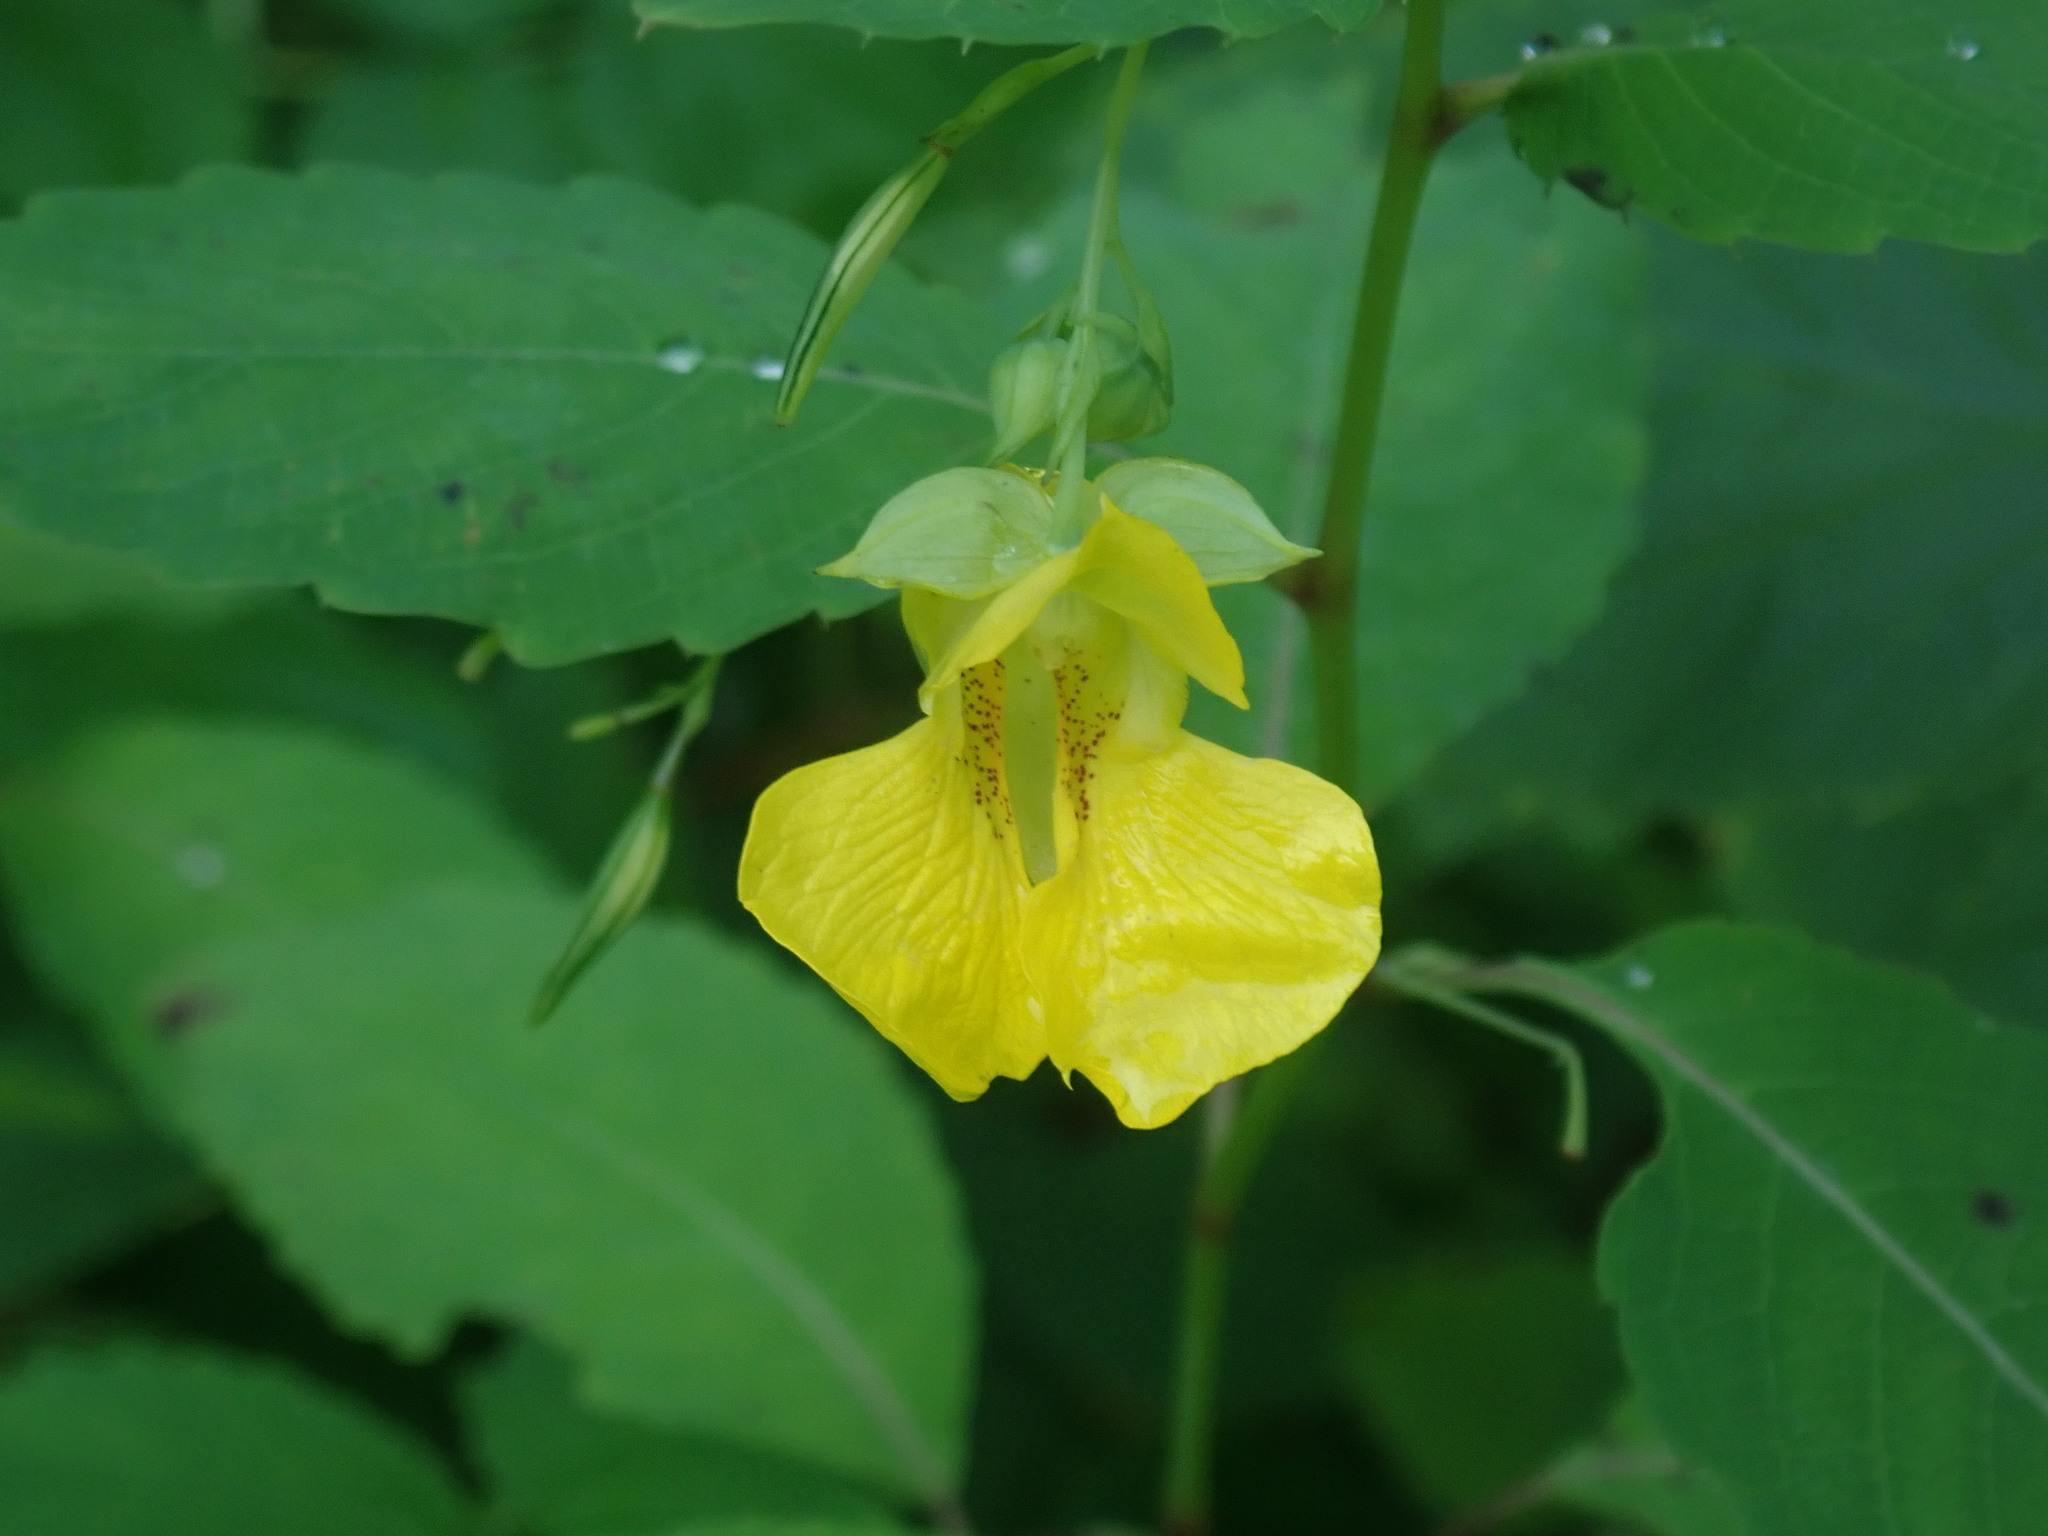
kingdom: Plantae
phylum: Tracheophyta
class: Magnoliopsida
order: Ericales
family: Balsaminaceae
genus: Impatiens
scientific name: Impatiens pallida
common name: Pale snapweed
